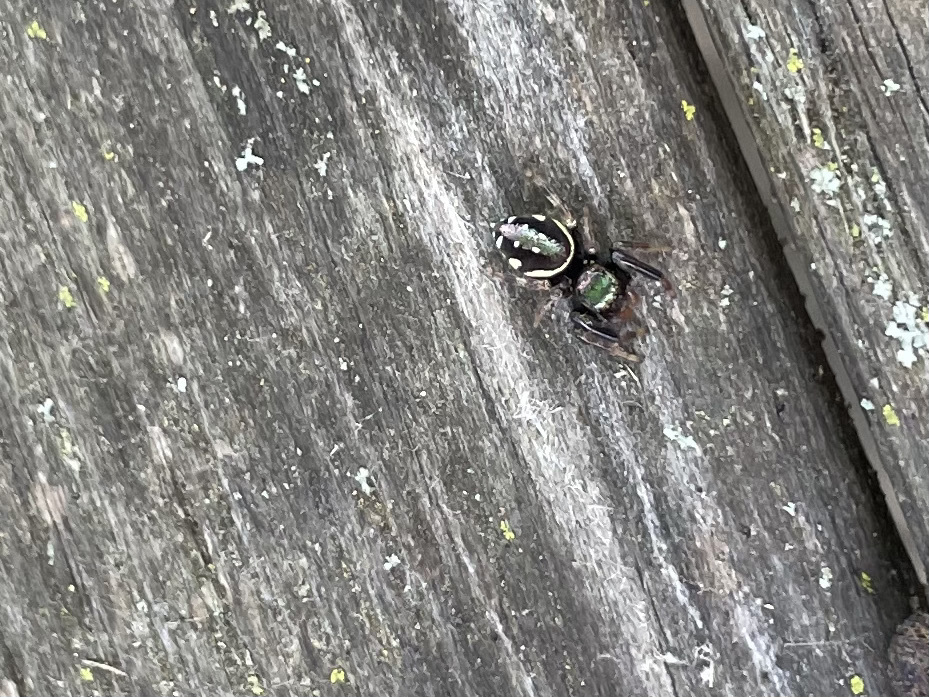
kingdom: Animalia
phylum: Arthropoda
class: Arachnida
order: Araneae
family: Salticidae
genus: Paraphidippus
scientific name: Paraphidippus aurantius
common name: Jumping spiders
